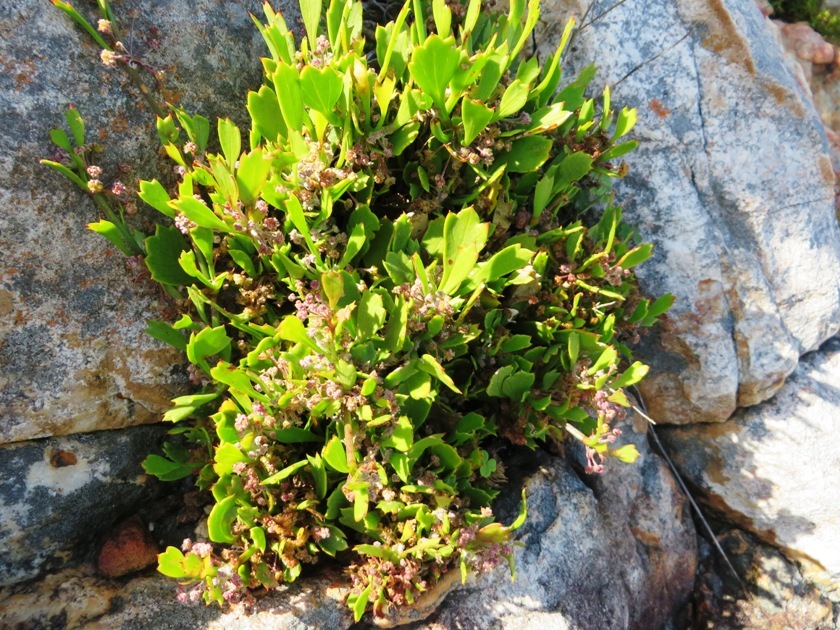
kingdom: Plantae
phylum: Tracheophyta
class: Magnoliopsida
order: Apiales
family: Apiaceae
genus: Centella
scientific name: Centella triloba
